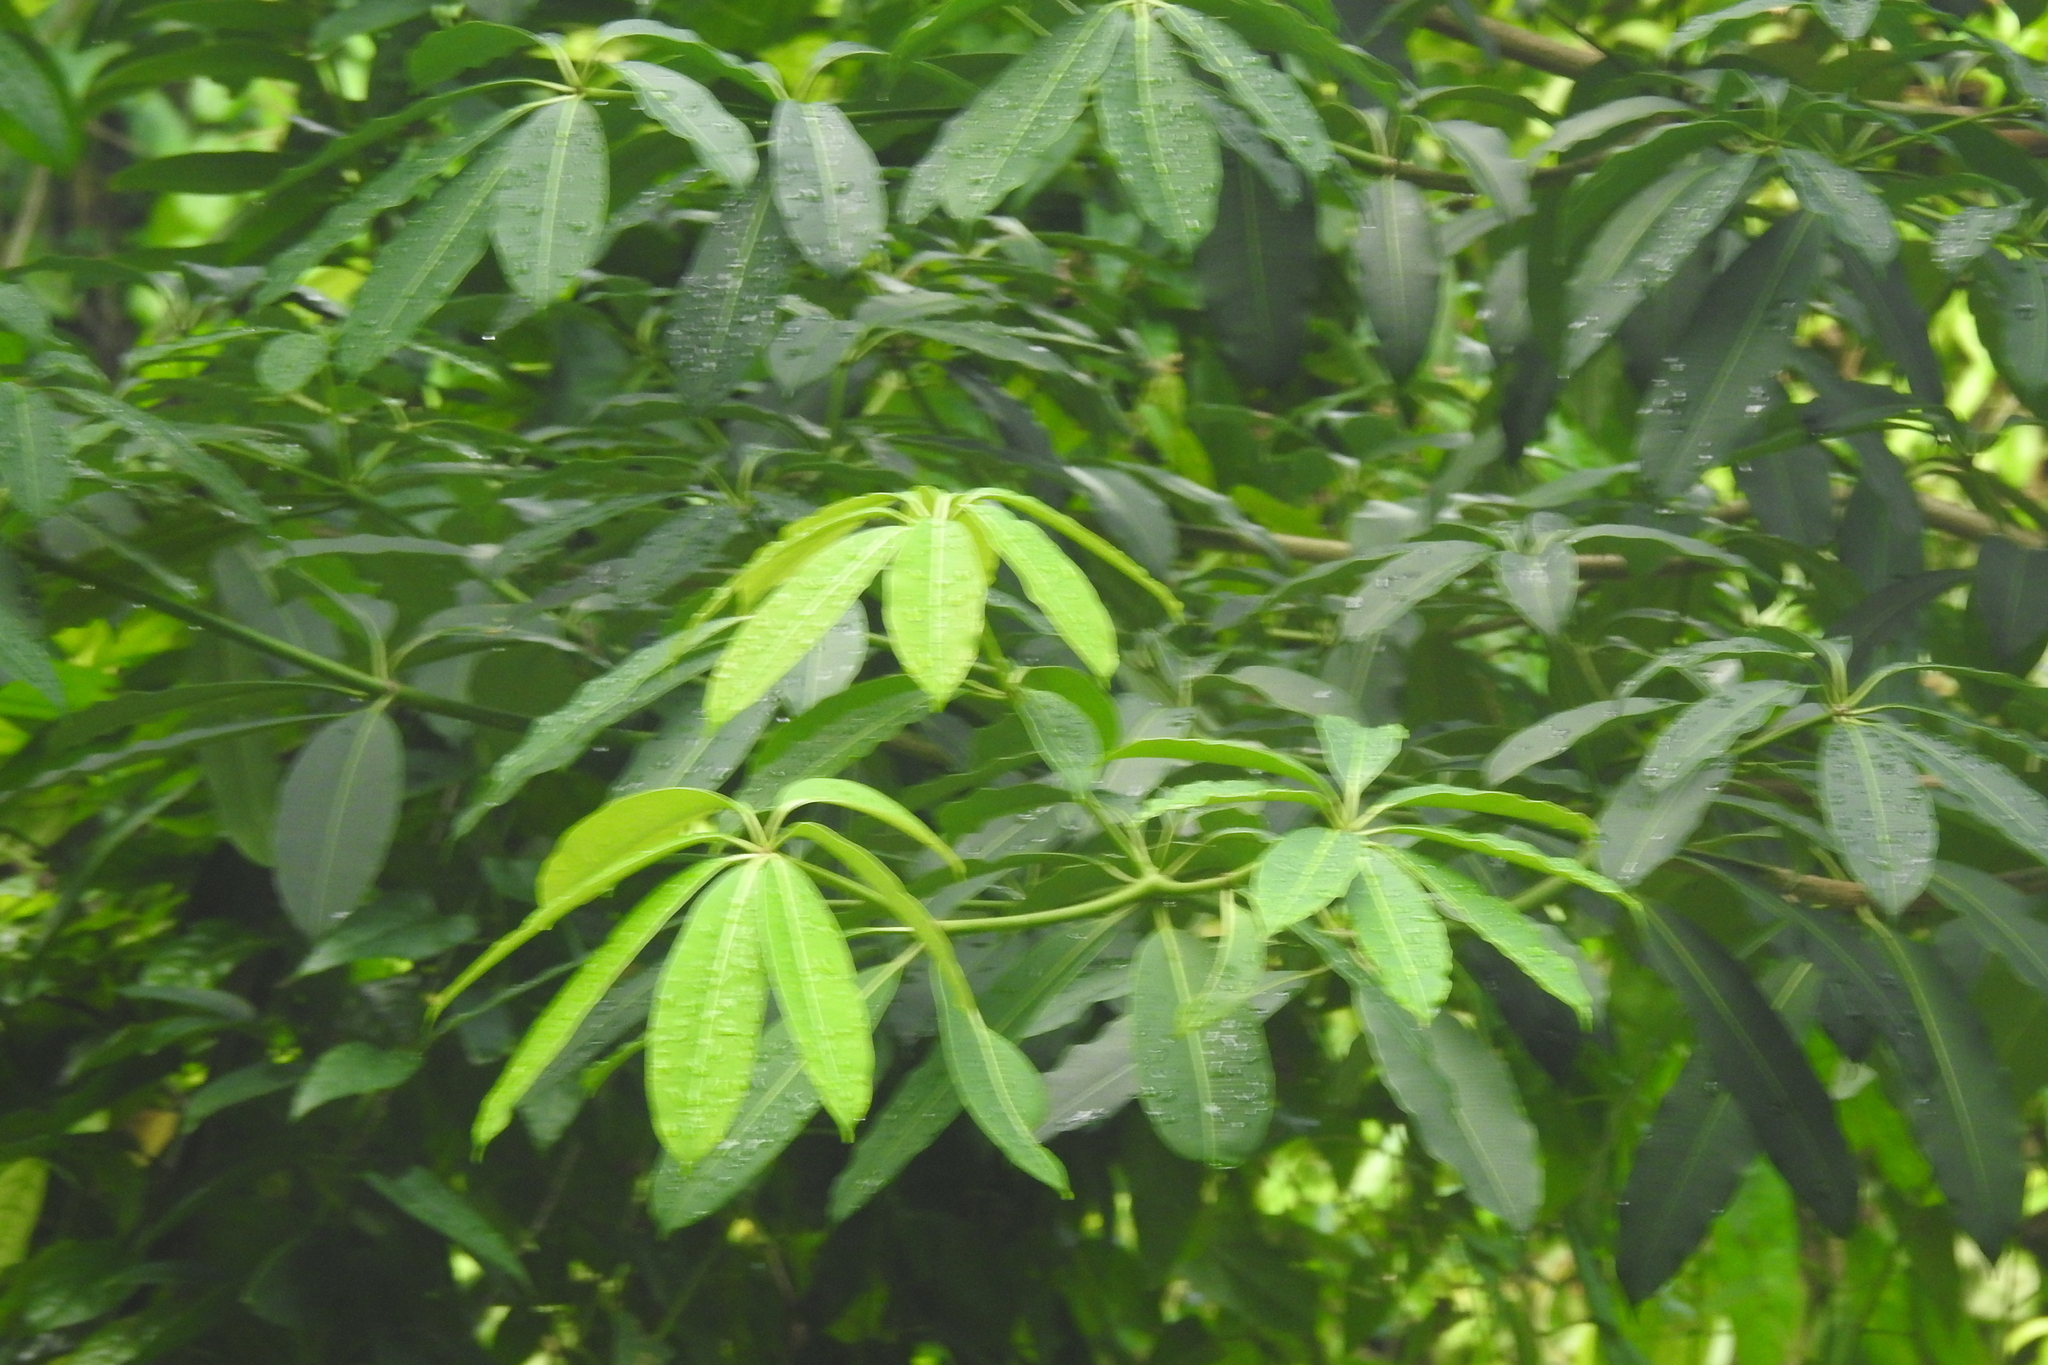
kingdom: Plantae
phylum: Tracheophyta
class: Magnoliopsida
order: Gentianales
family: Apocynaceae
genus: Alstonia
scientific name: Alstonia angustiloba
